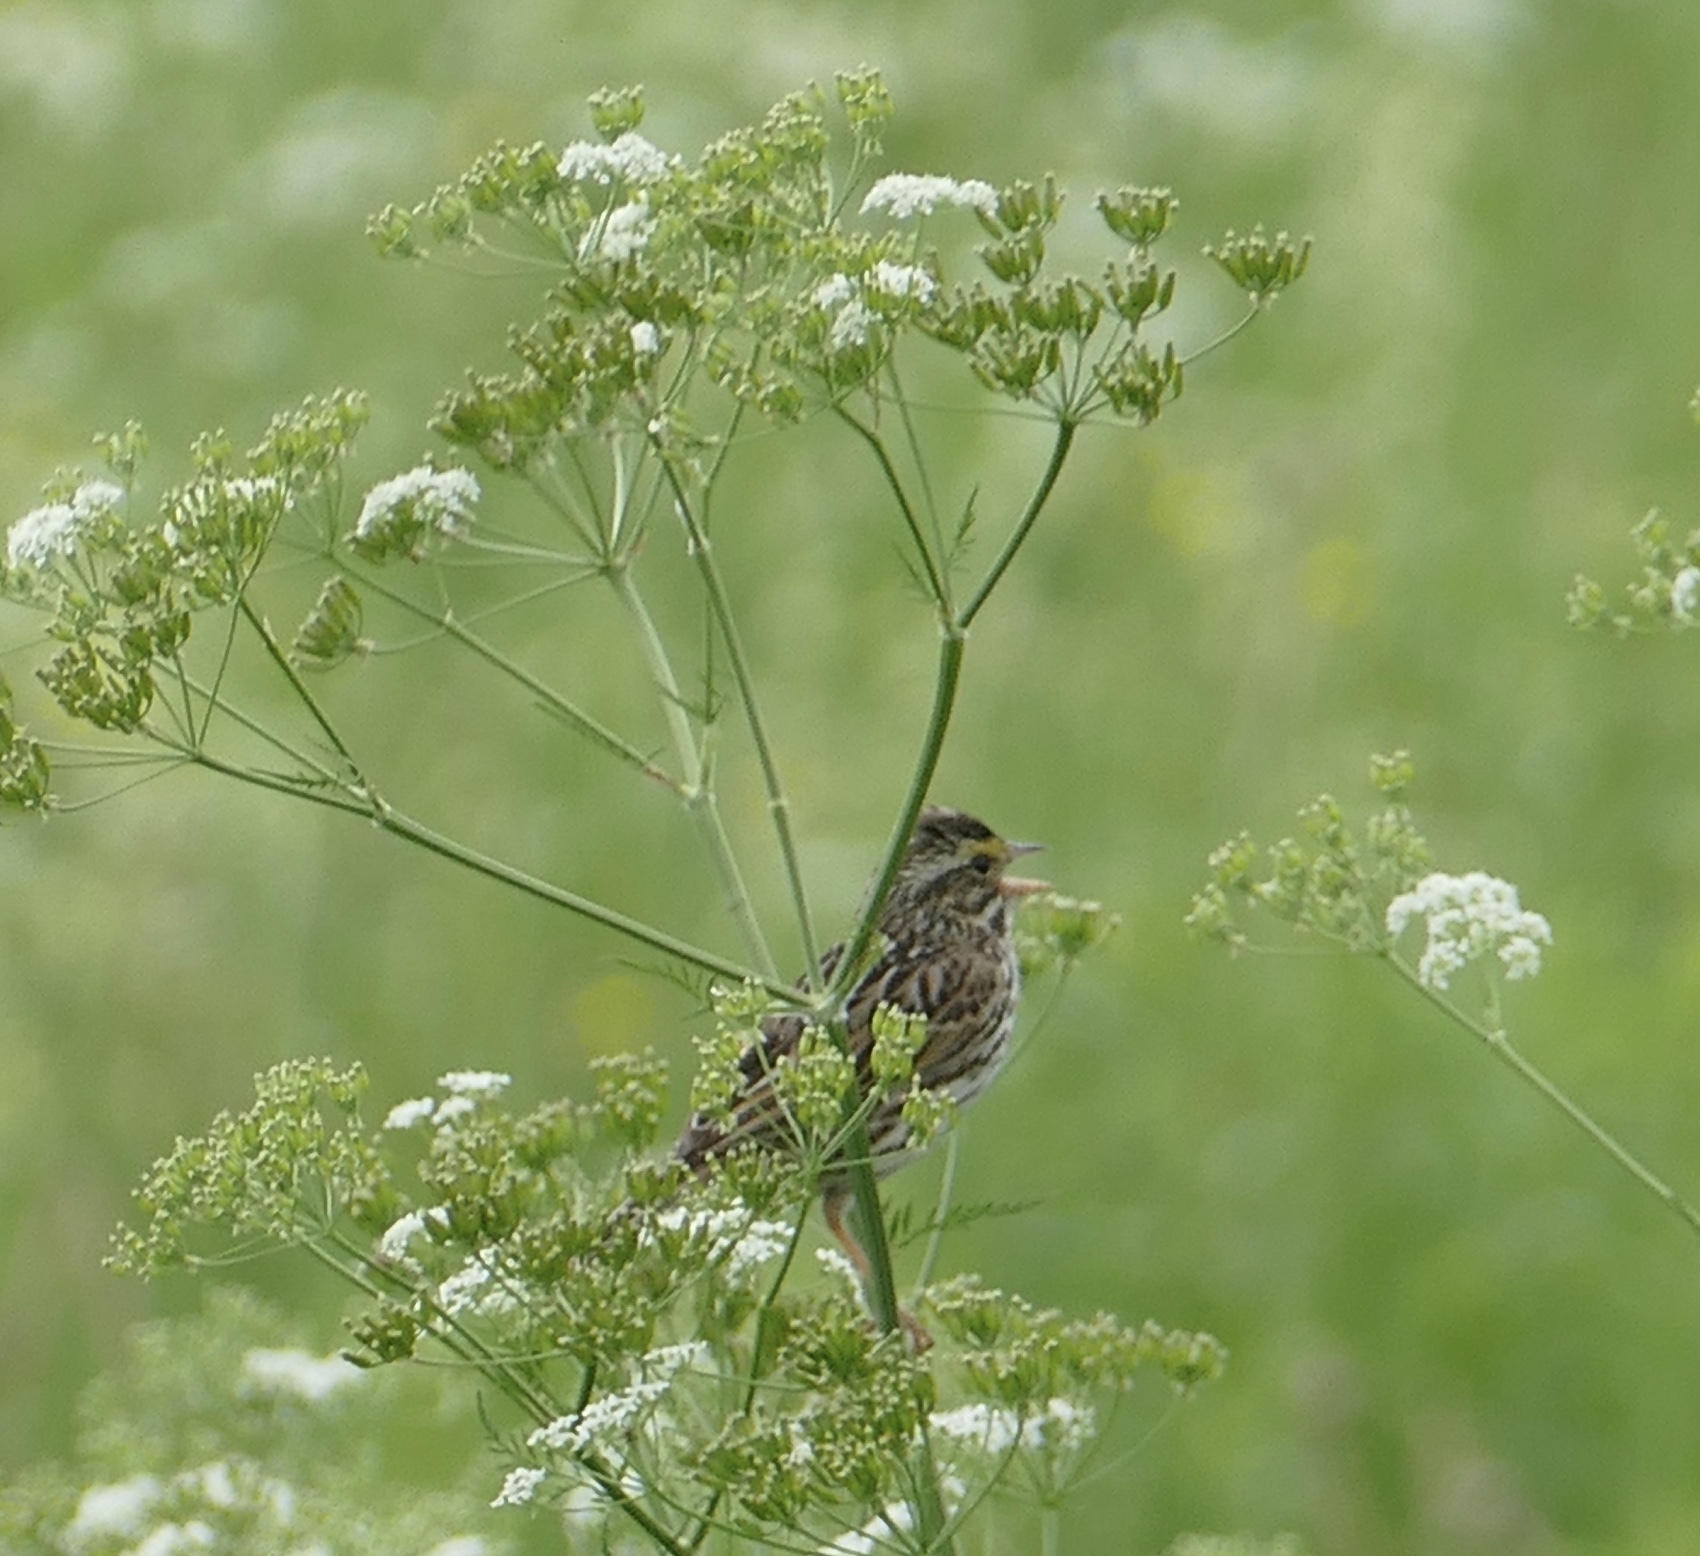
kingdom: Animalia
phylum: Chordata
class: Aves
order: Passeriformes
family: Passerellidae
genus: Passerculus
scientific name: Passerculus sandwichensis
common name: Savannah sparrow
